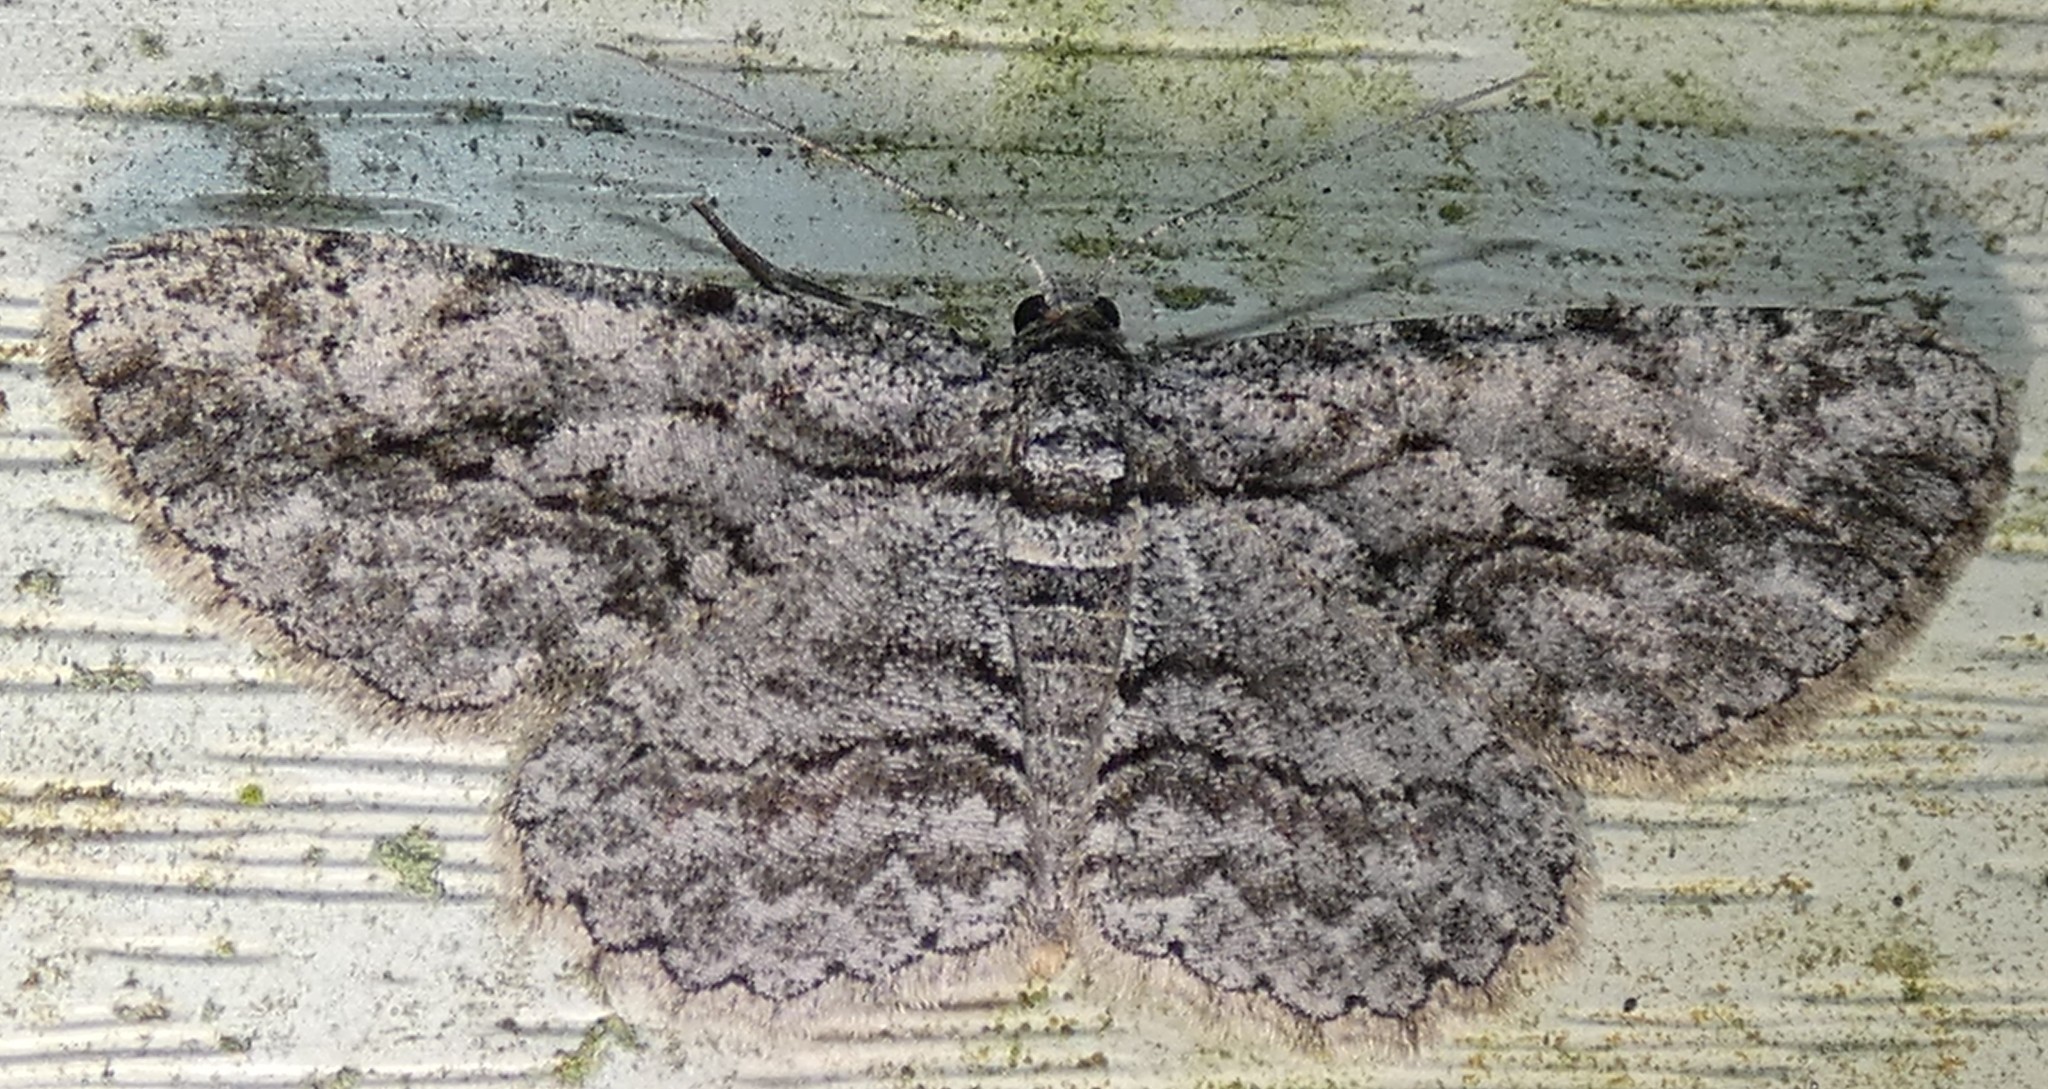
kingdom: Animalia
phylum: Arthropoda
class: Insecta
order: Lepidoptera
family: Geometridae
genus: Anavitrinella
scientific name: Anavitrinella pampinaria
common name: Common gray
